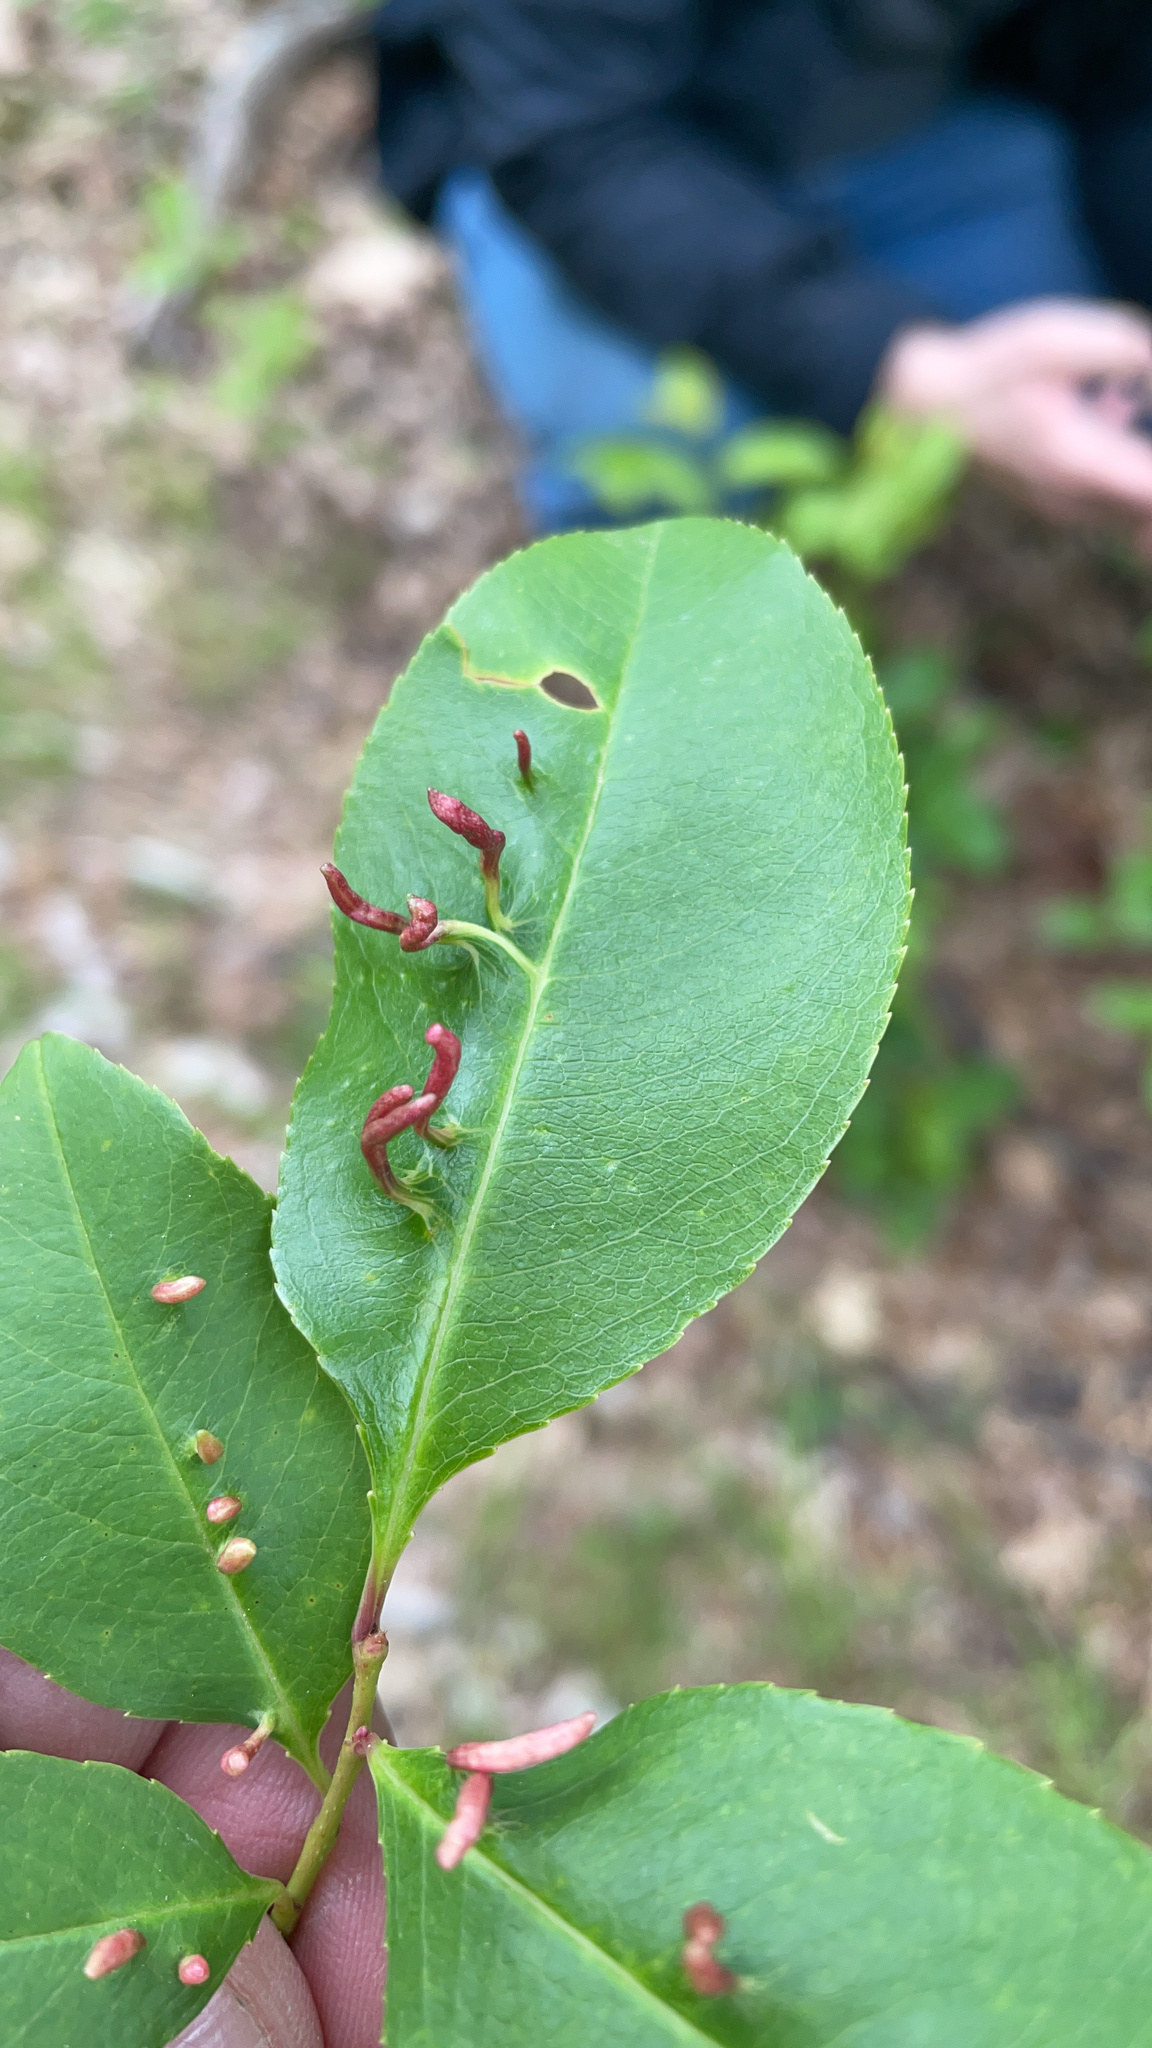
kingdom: Animalia
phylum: Arthropoda
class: Arachnida
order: Trombidiformes
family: Eriophyidae
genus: Eriophyes
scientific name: Eriophyes
